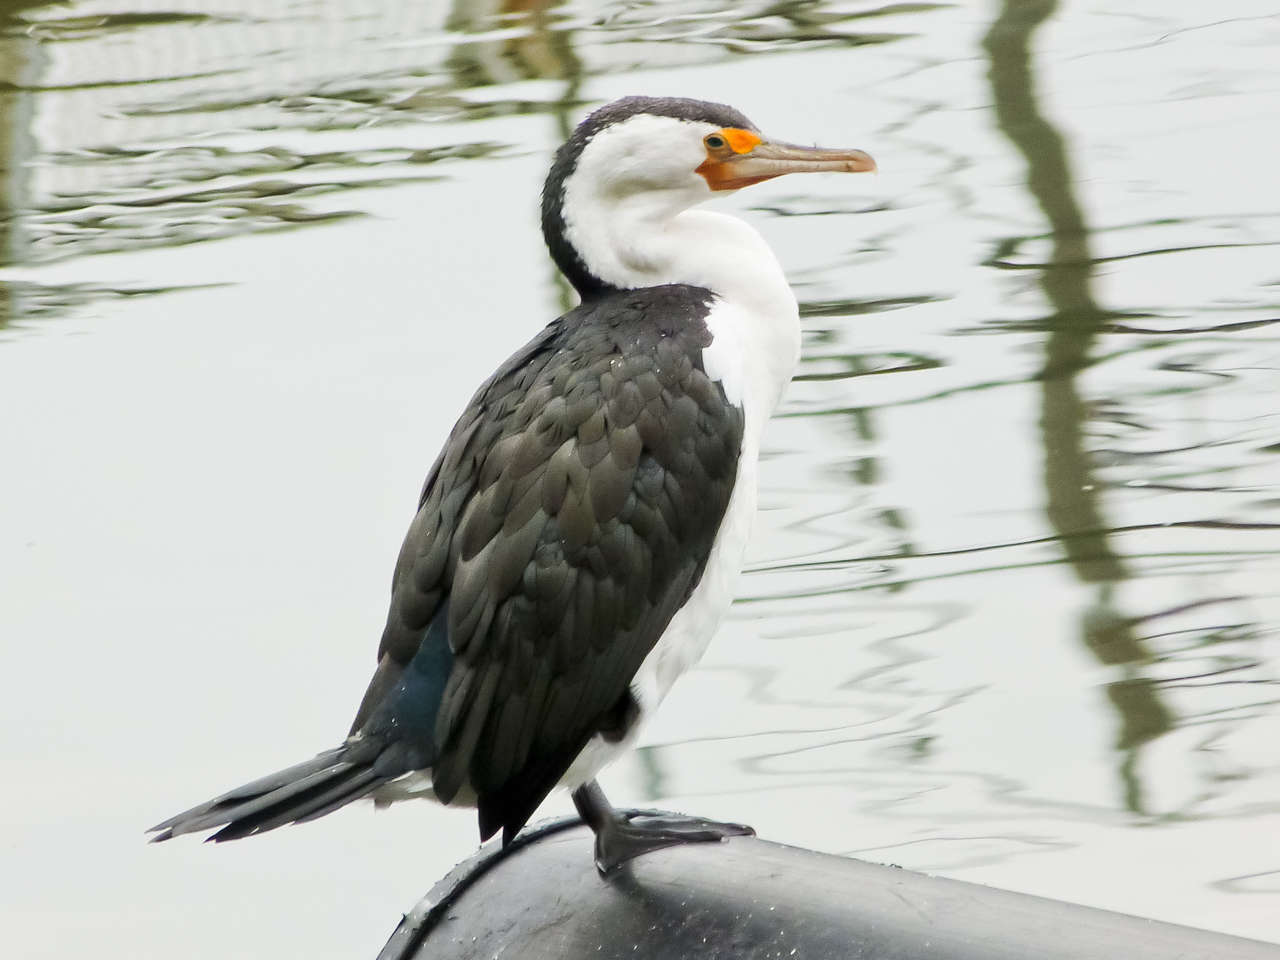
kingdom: Animalia
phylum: Chordata
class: Aves
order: Suliformes
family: Phalacrocoracidae
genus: Phalacrocorax
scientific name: Phalacrocorax varius
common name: Pied cormorant
